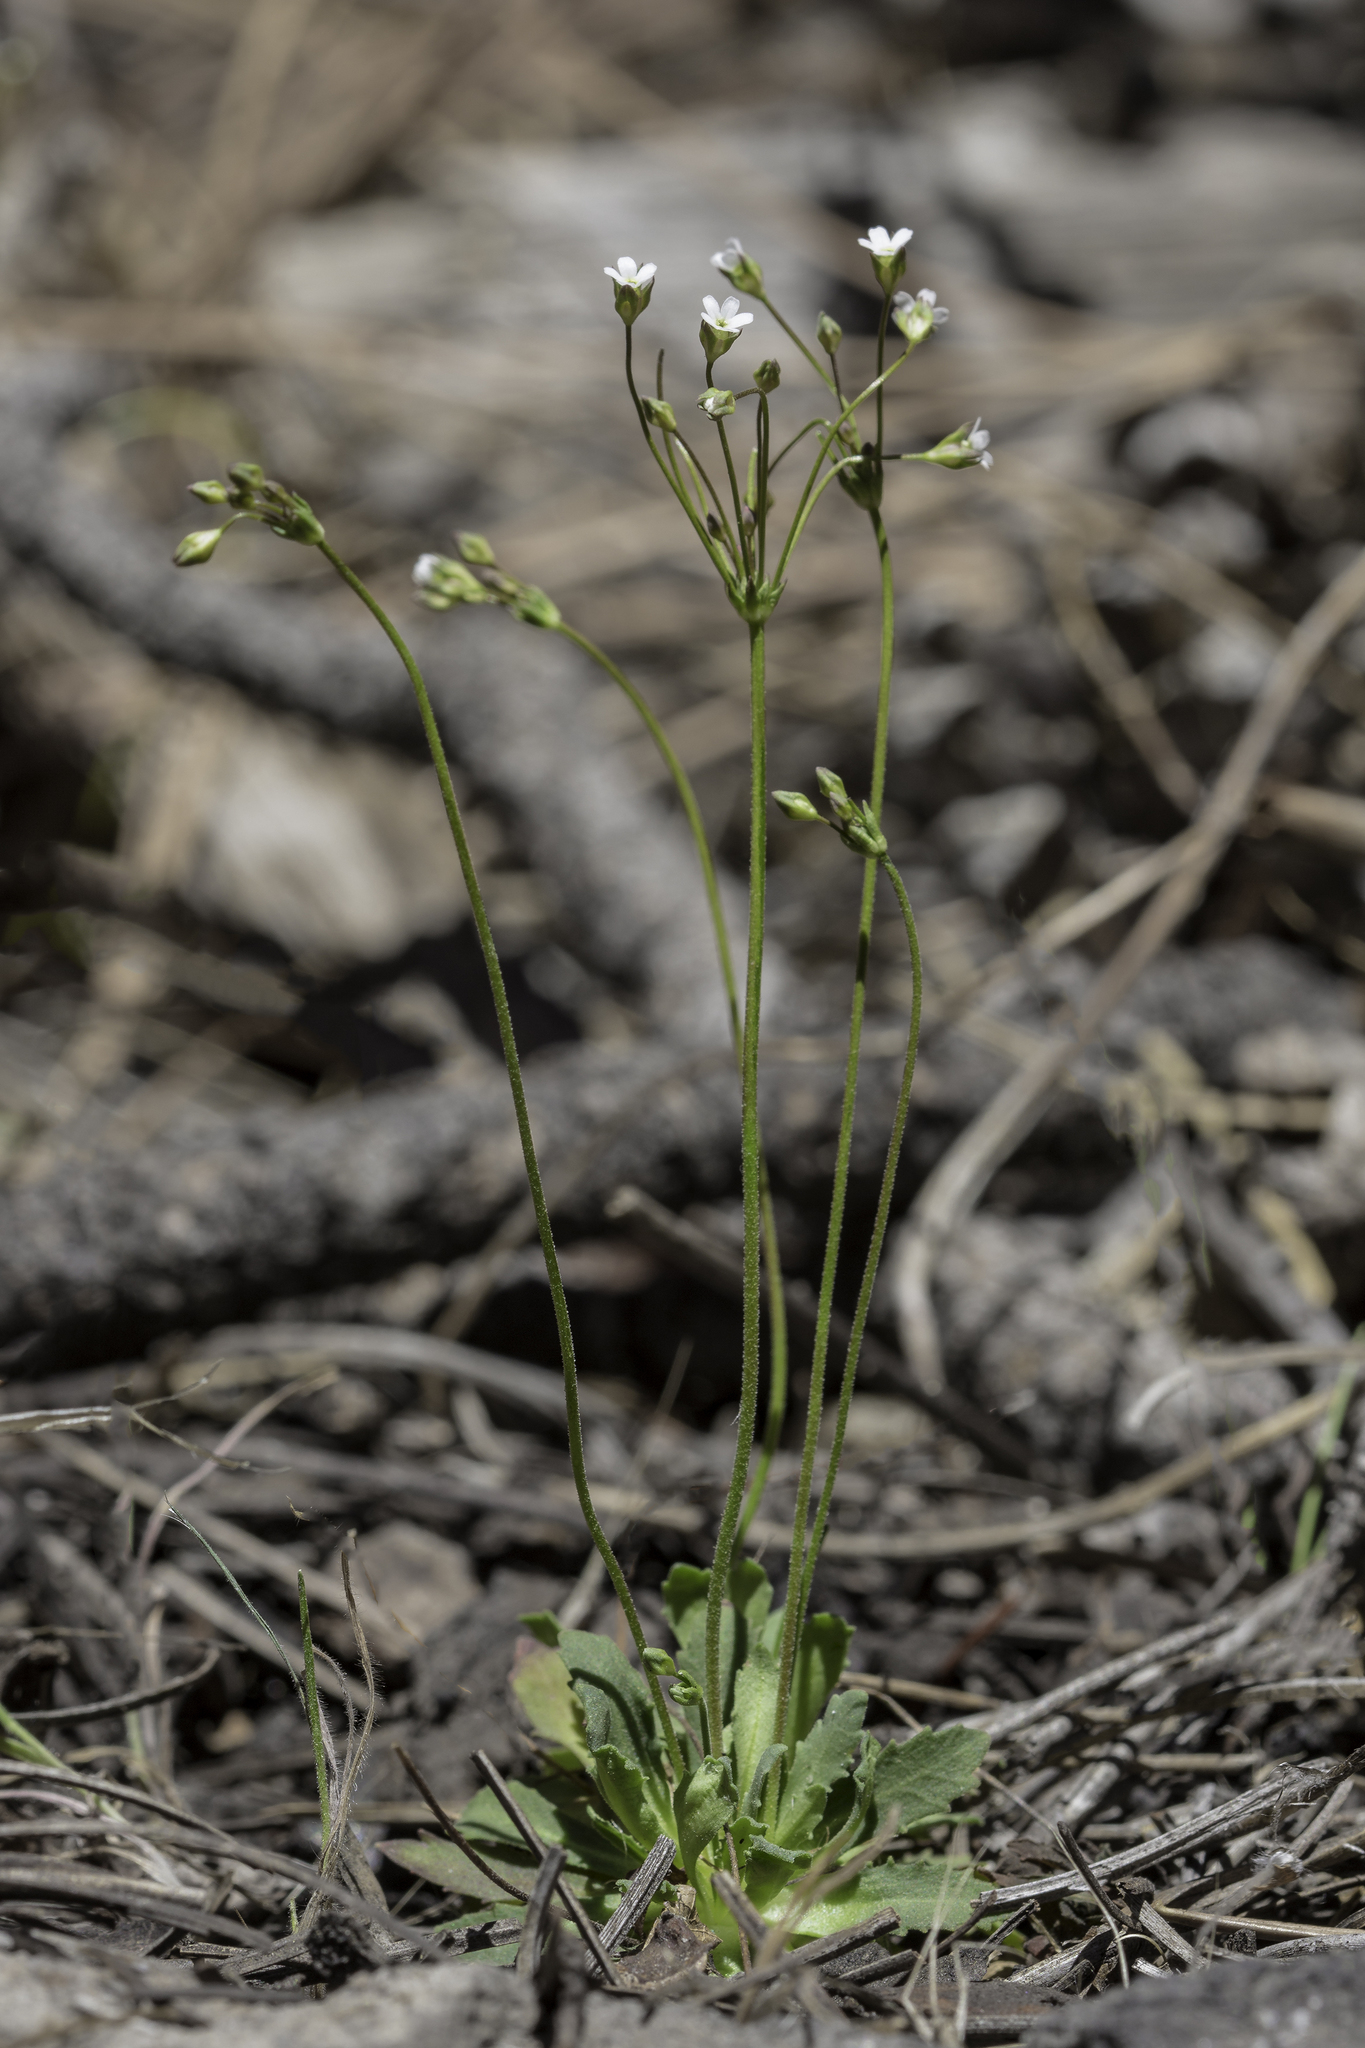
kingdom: Plantae
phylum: Tracheophyta
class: Magnoliopsida
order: Ericales
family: Primulaceae
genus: Androsace
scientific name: Androsace septentrionalis
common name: Hairy northern fairy-candelabra
